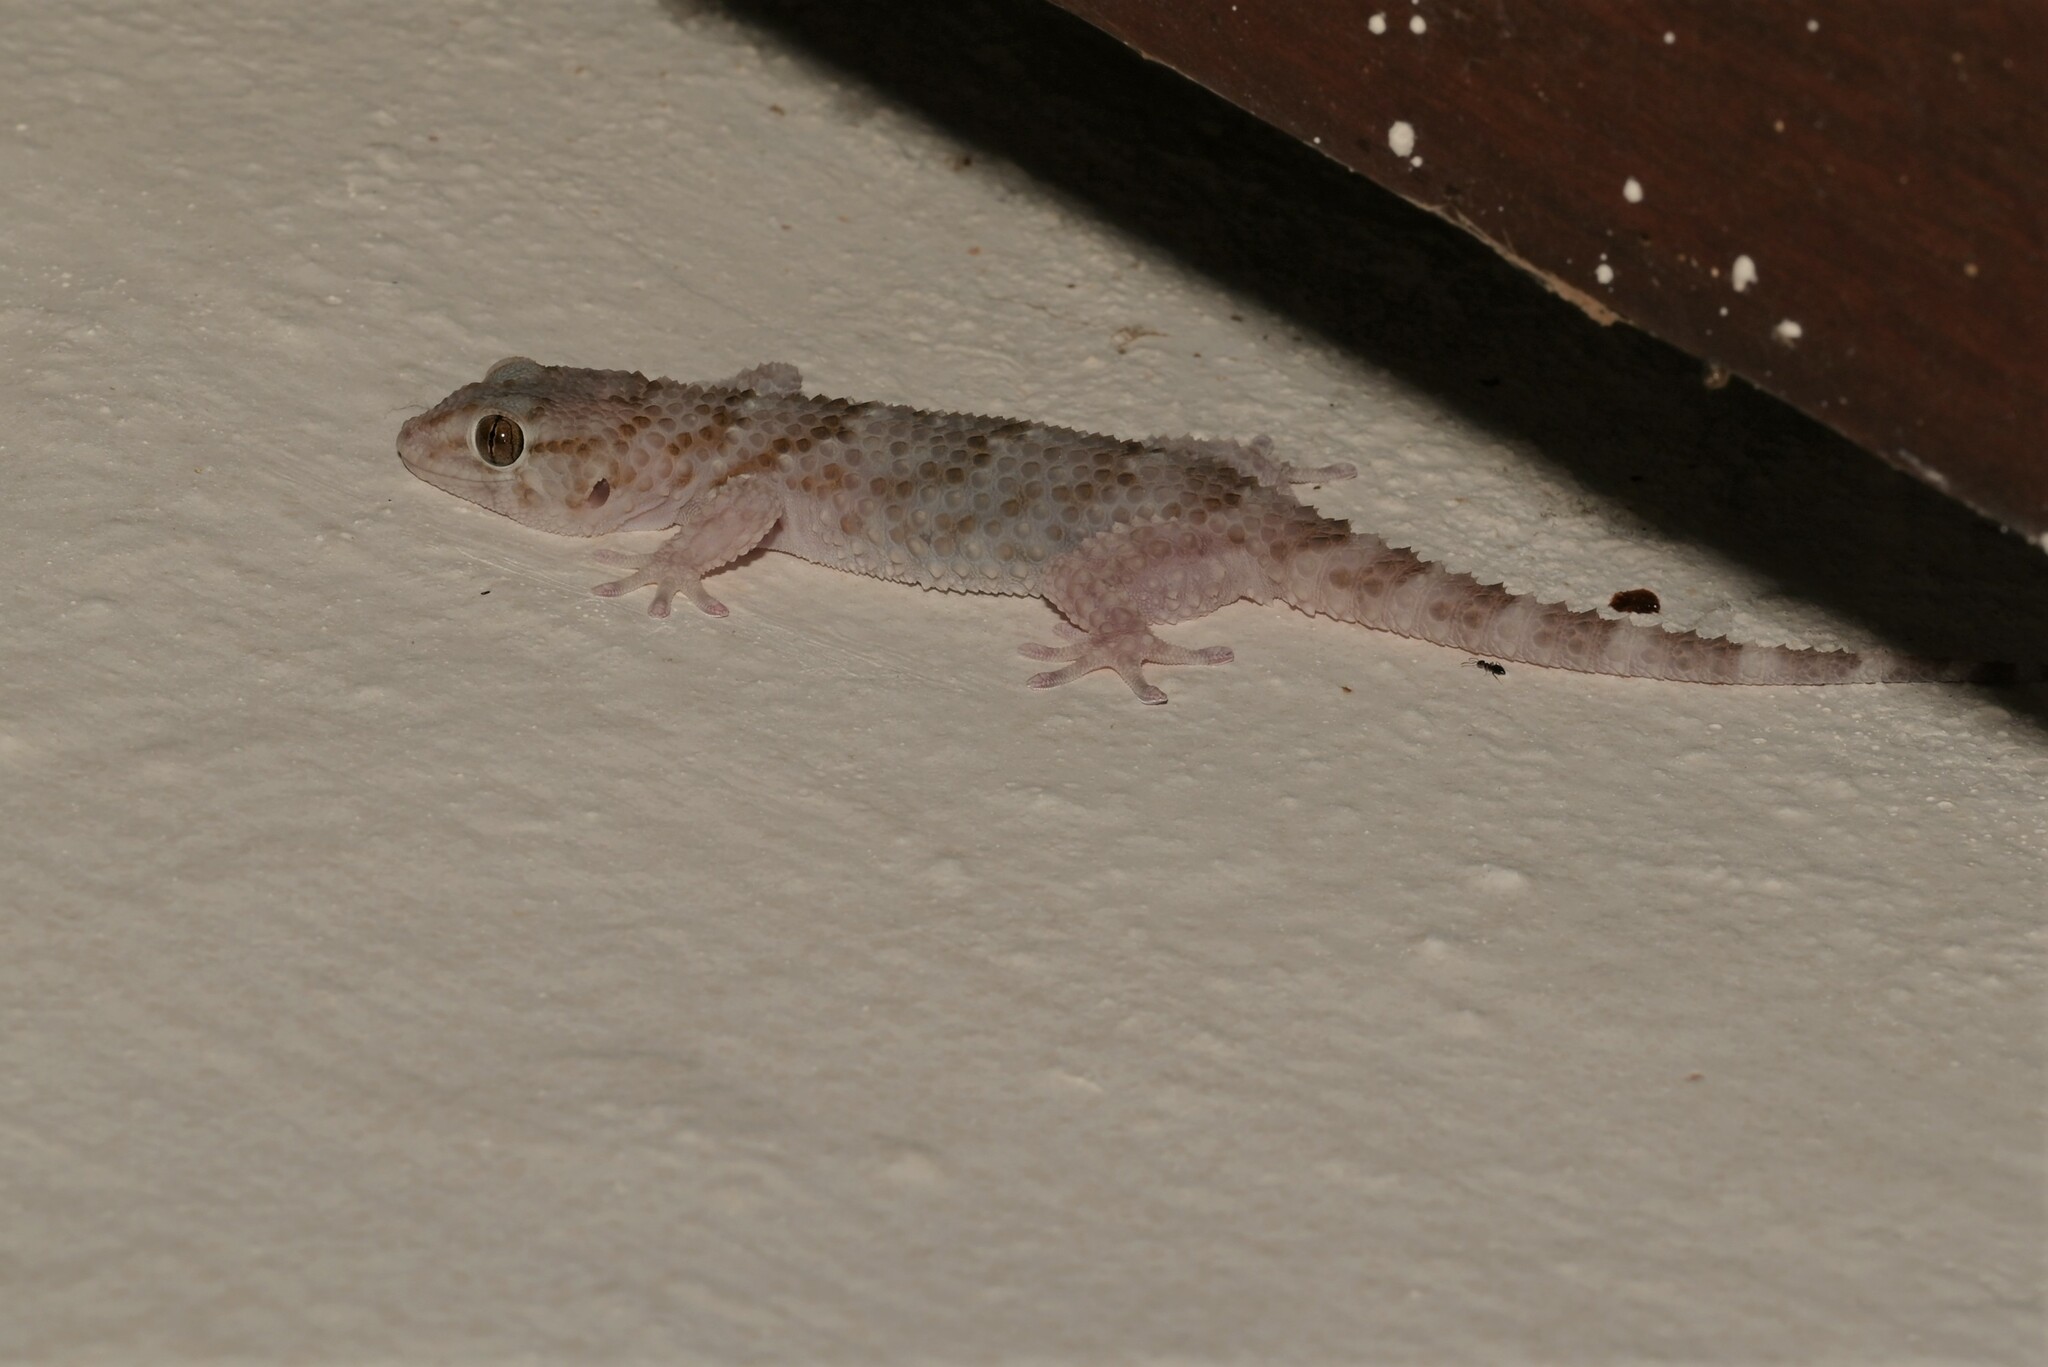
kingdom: Animalia
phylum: Chordata
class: Squamata
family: Gekkonidae
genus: Chondrodactylus
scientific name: Chondrodactylus bibronii
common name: Bibron's gecko
